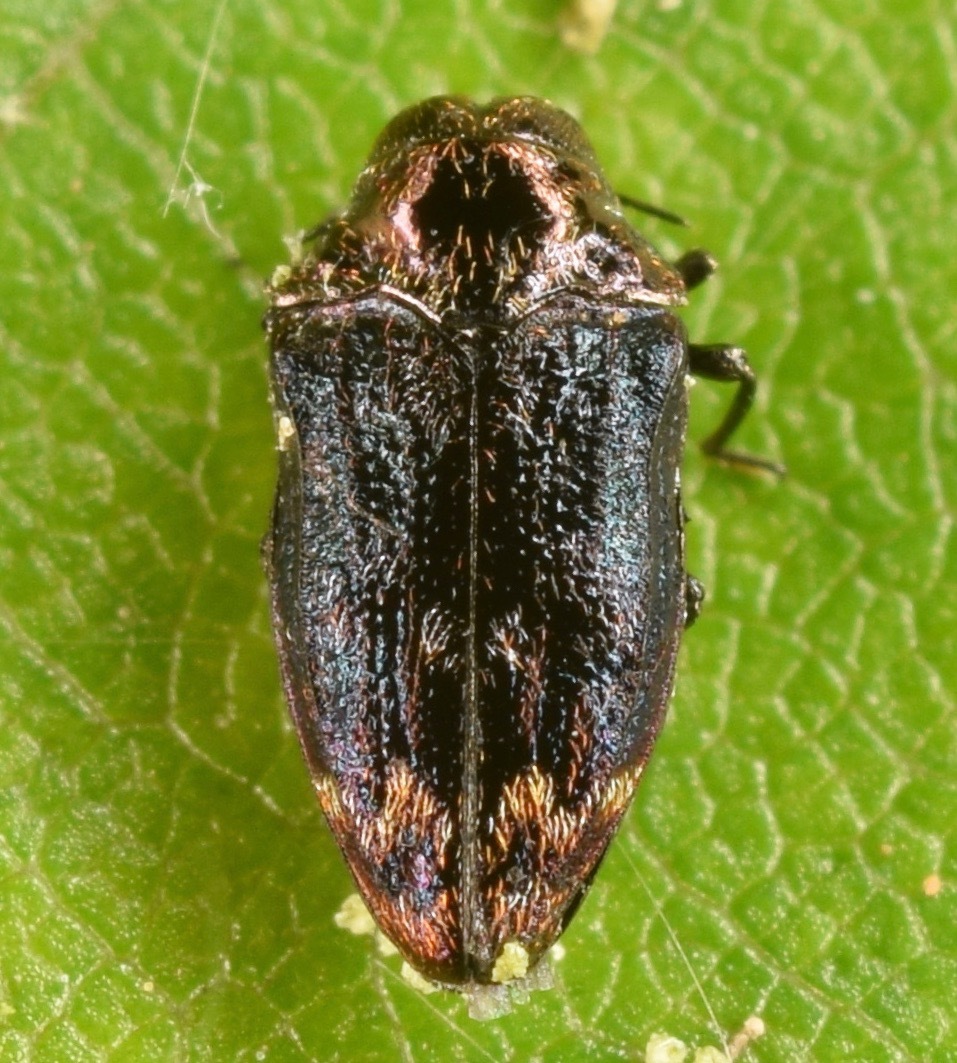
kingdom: Animalia
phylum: Arthropoda
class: Insecta
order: Coleoptera
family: Buprestidae
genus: Brachys
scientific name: Brachys aerosus
